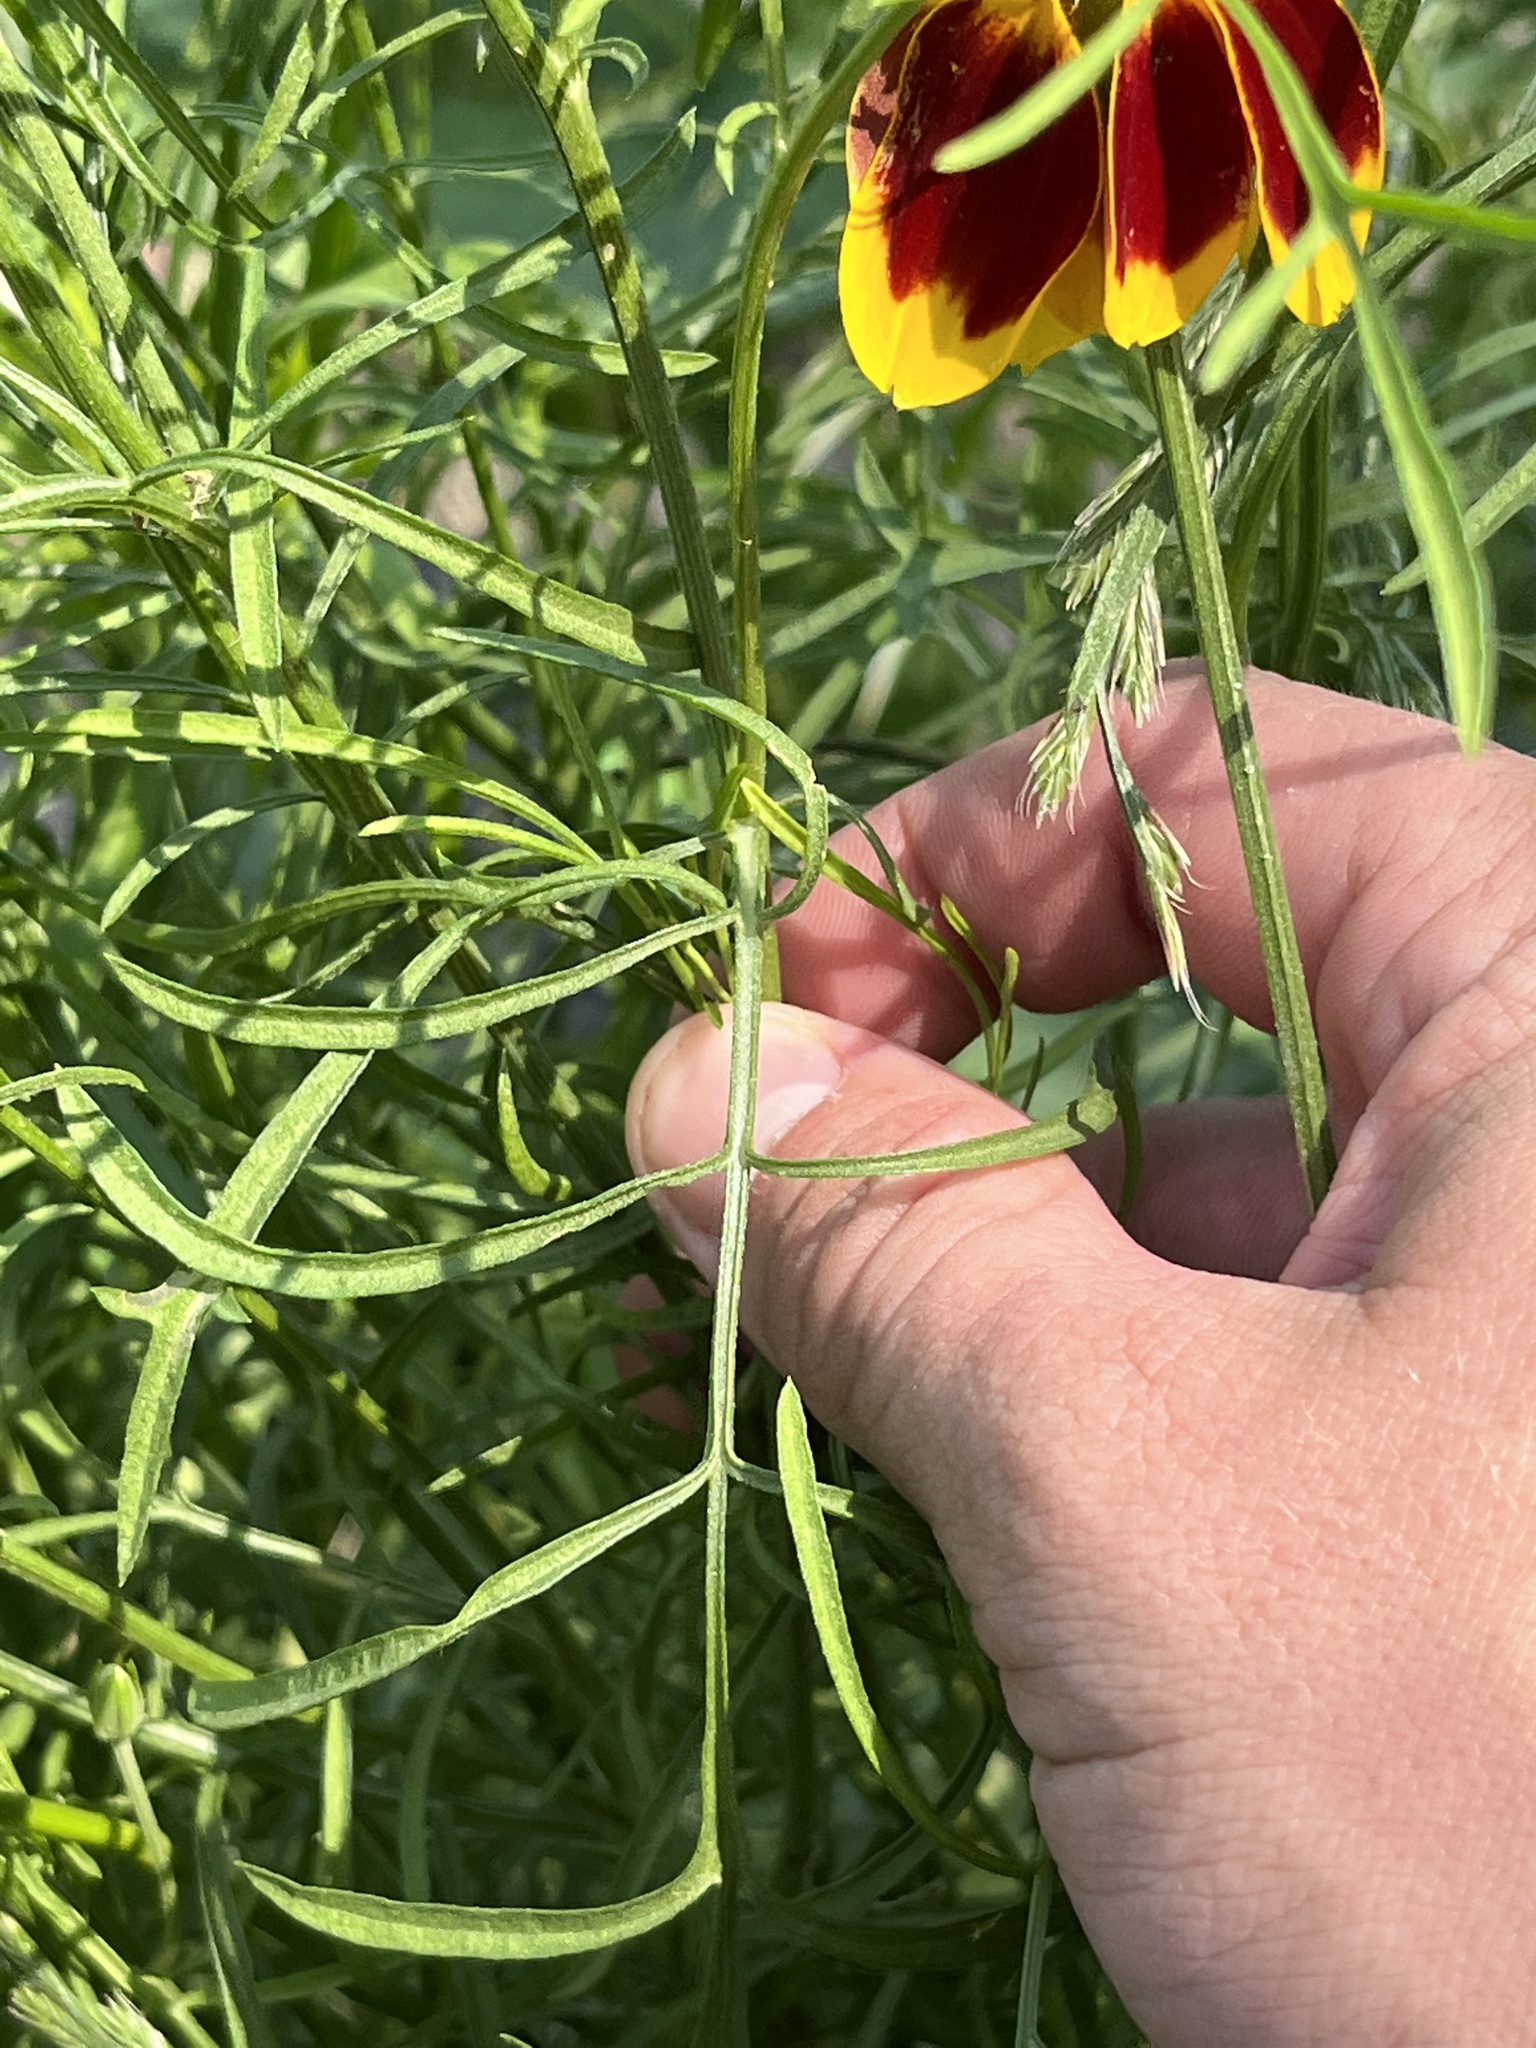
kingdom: Plantae
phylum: Tracheophyta
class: Magnoliopsida
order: Asterales
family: Asteraceae
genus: Ratibida
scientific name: Ratibida columnifera
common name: Prairie coneflower
